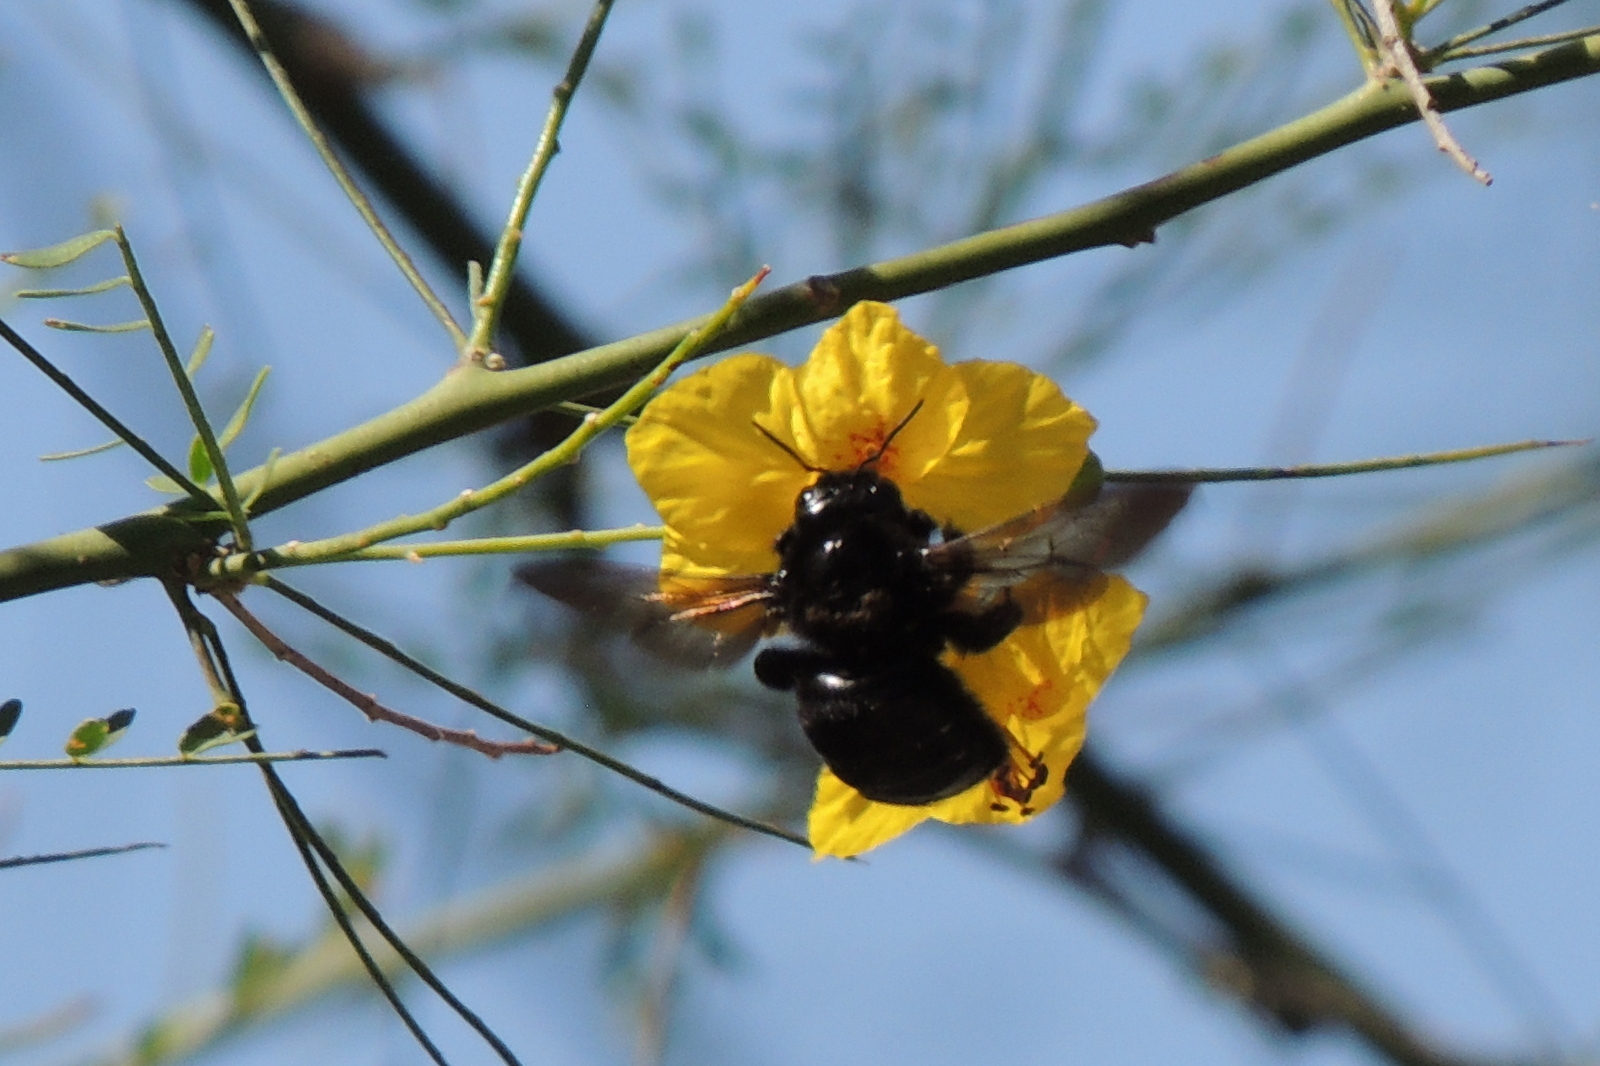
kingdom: Animalia
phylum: Arthropoda
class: Insecta
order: Hymenoptera
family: Apidae
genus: Xylocopa
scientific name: Xylocopa sonorina
